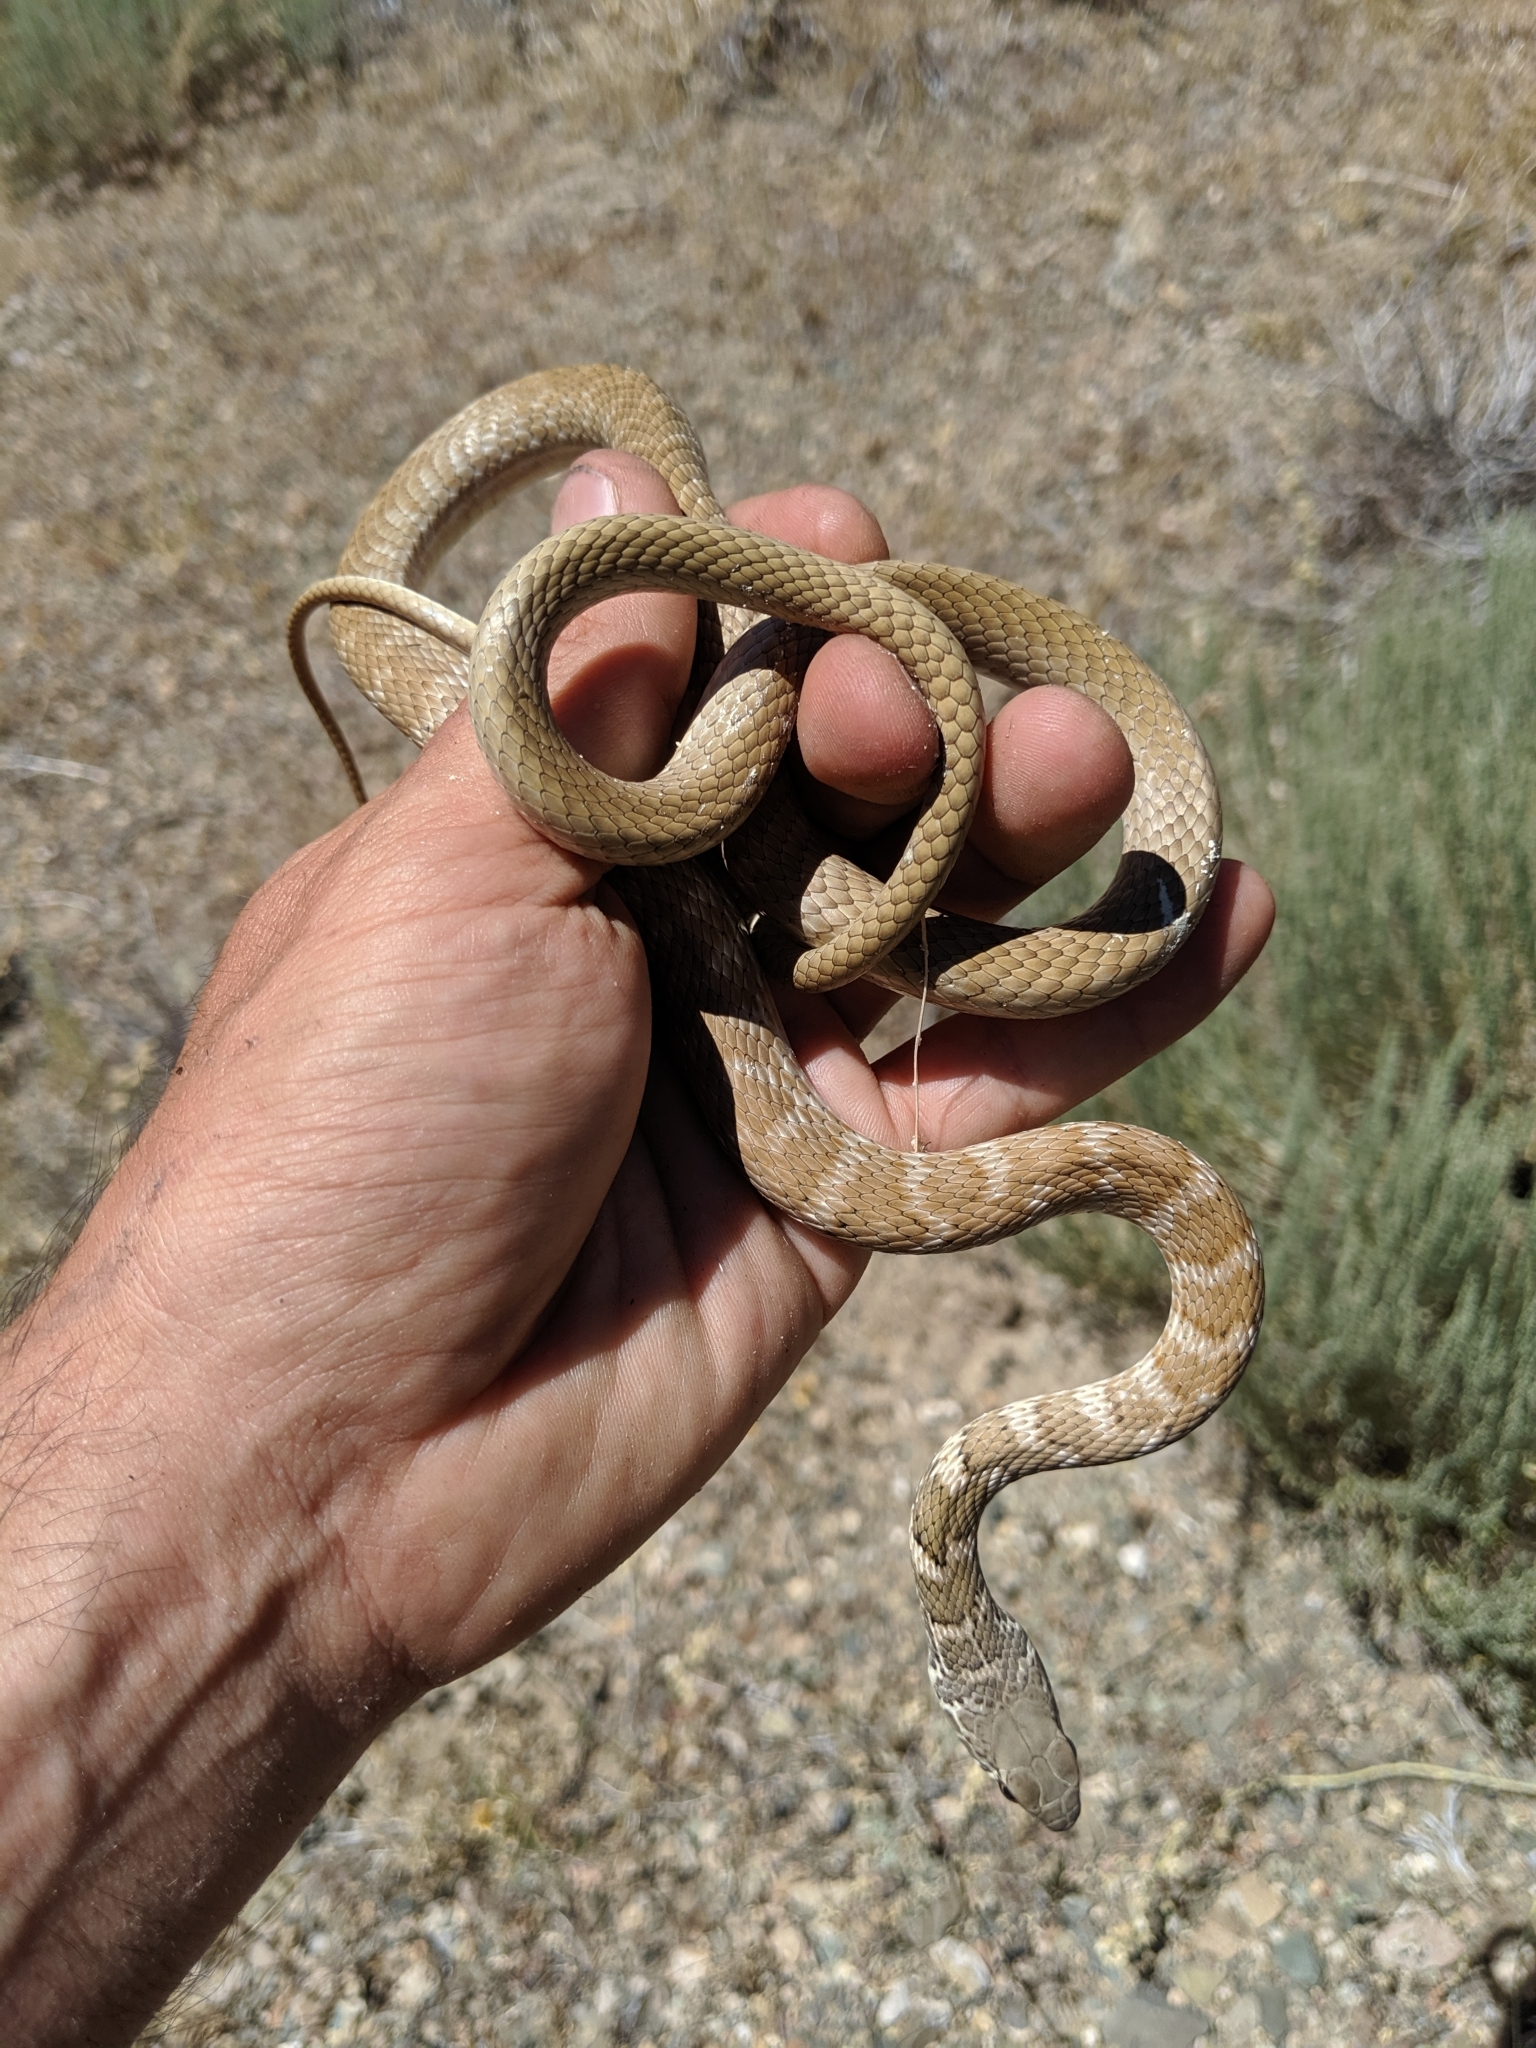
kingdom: Animalia
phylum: Chordata
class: Squamata
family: Colubridae
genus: Masticophis
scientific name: Masticophis flagellum
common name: Coachwhip
